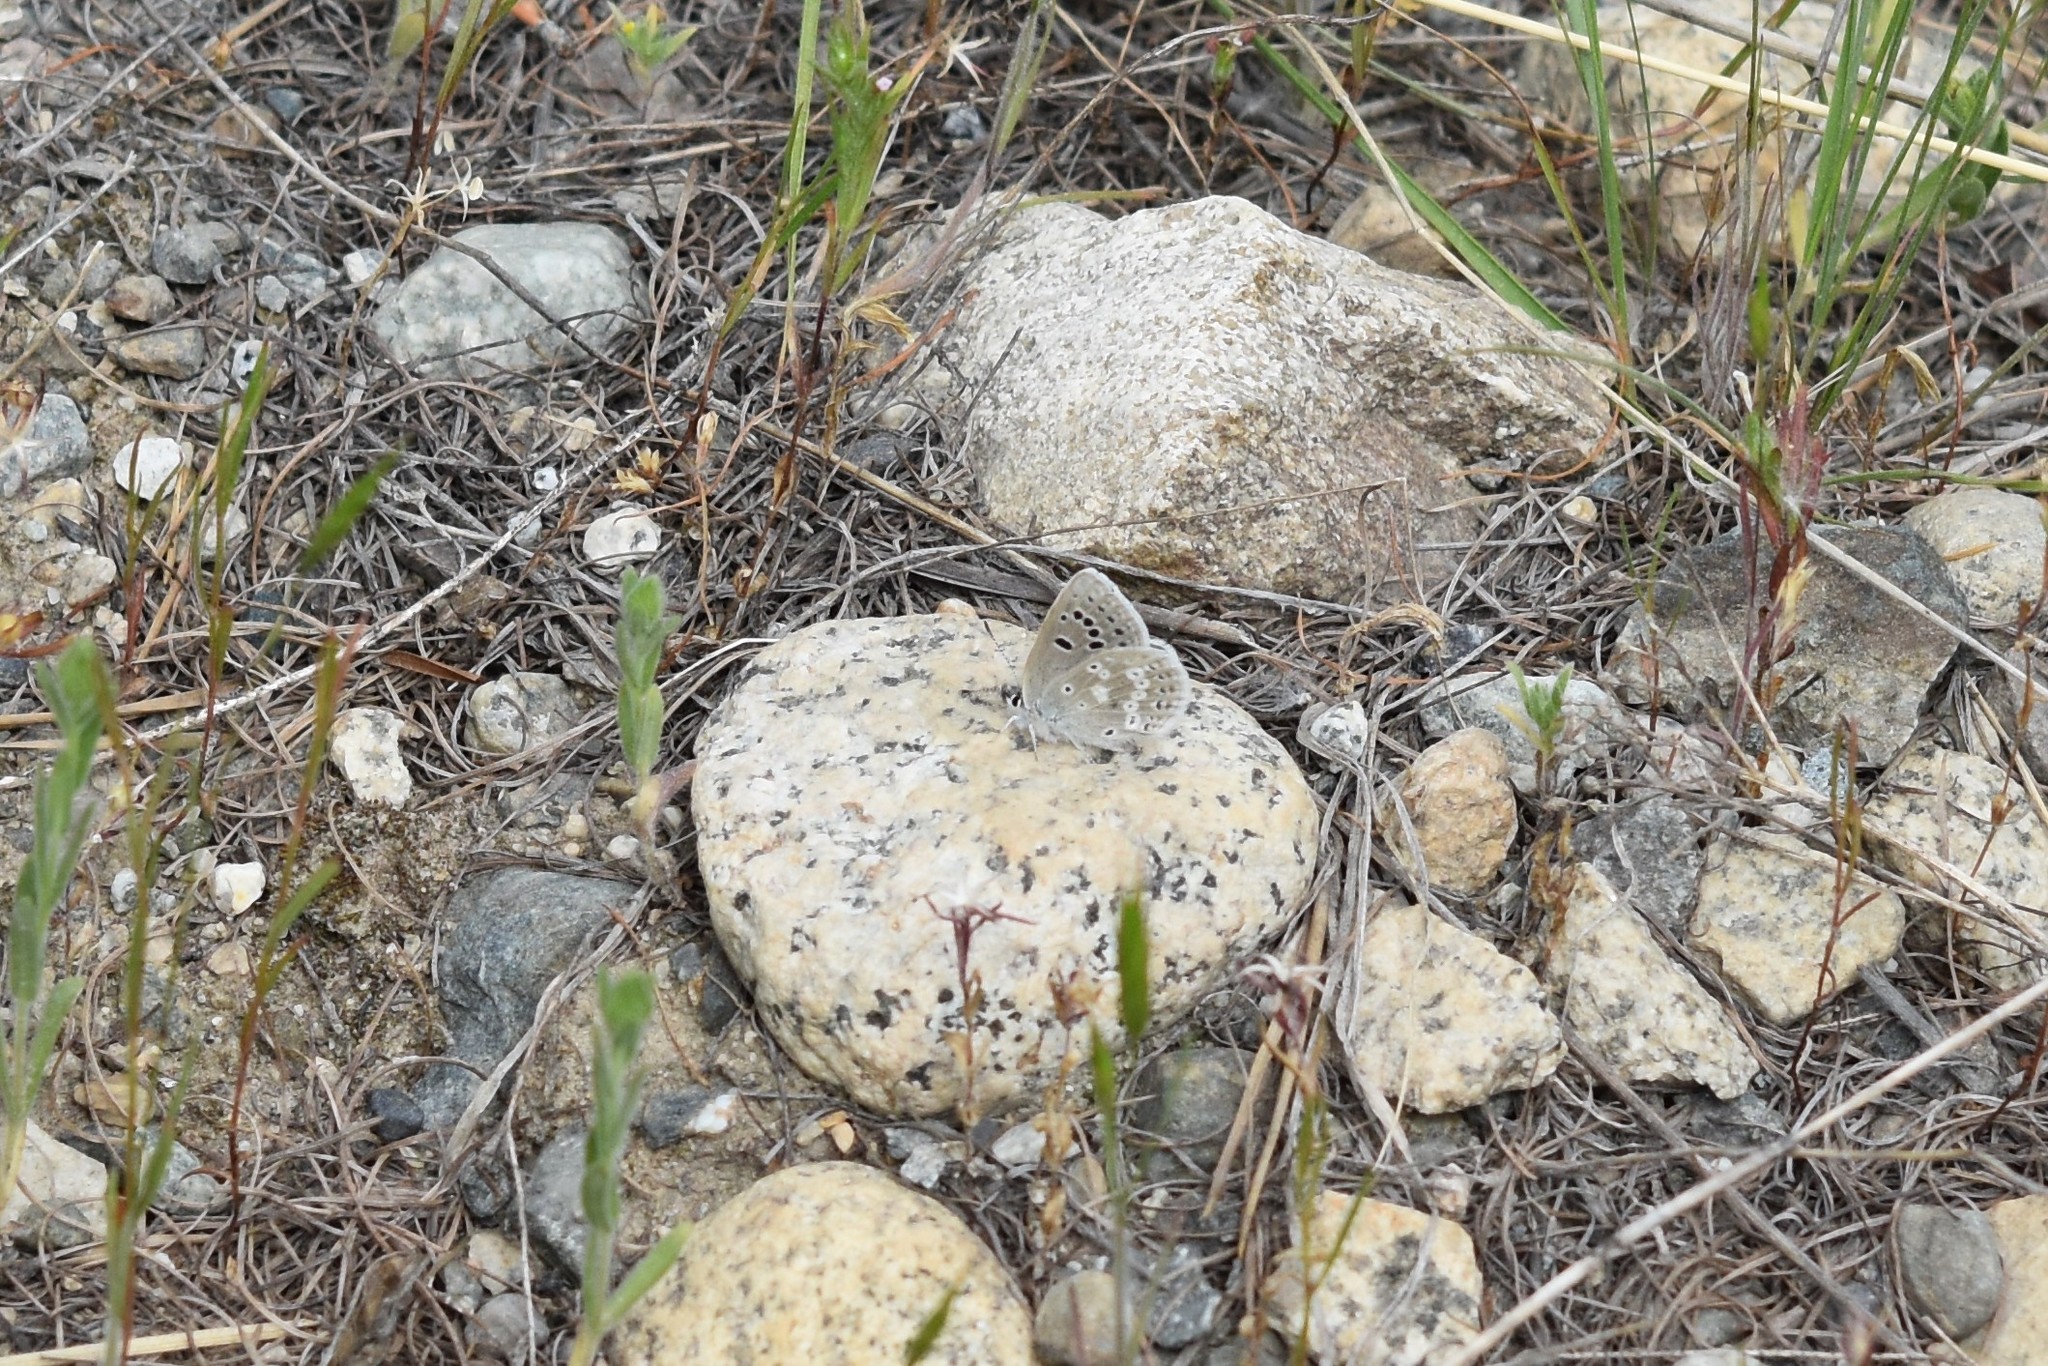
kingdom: Animalia
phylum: Arthropoda
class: Insecta
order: Lepidoptera
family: Lycaenidae
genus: Icaricia
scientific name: Icaricia icarioides
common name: Boisduval's blue
